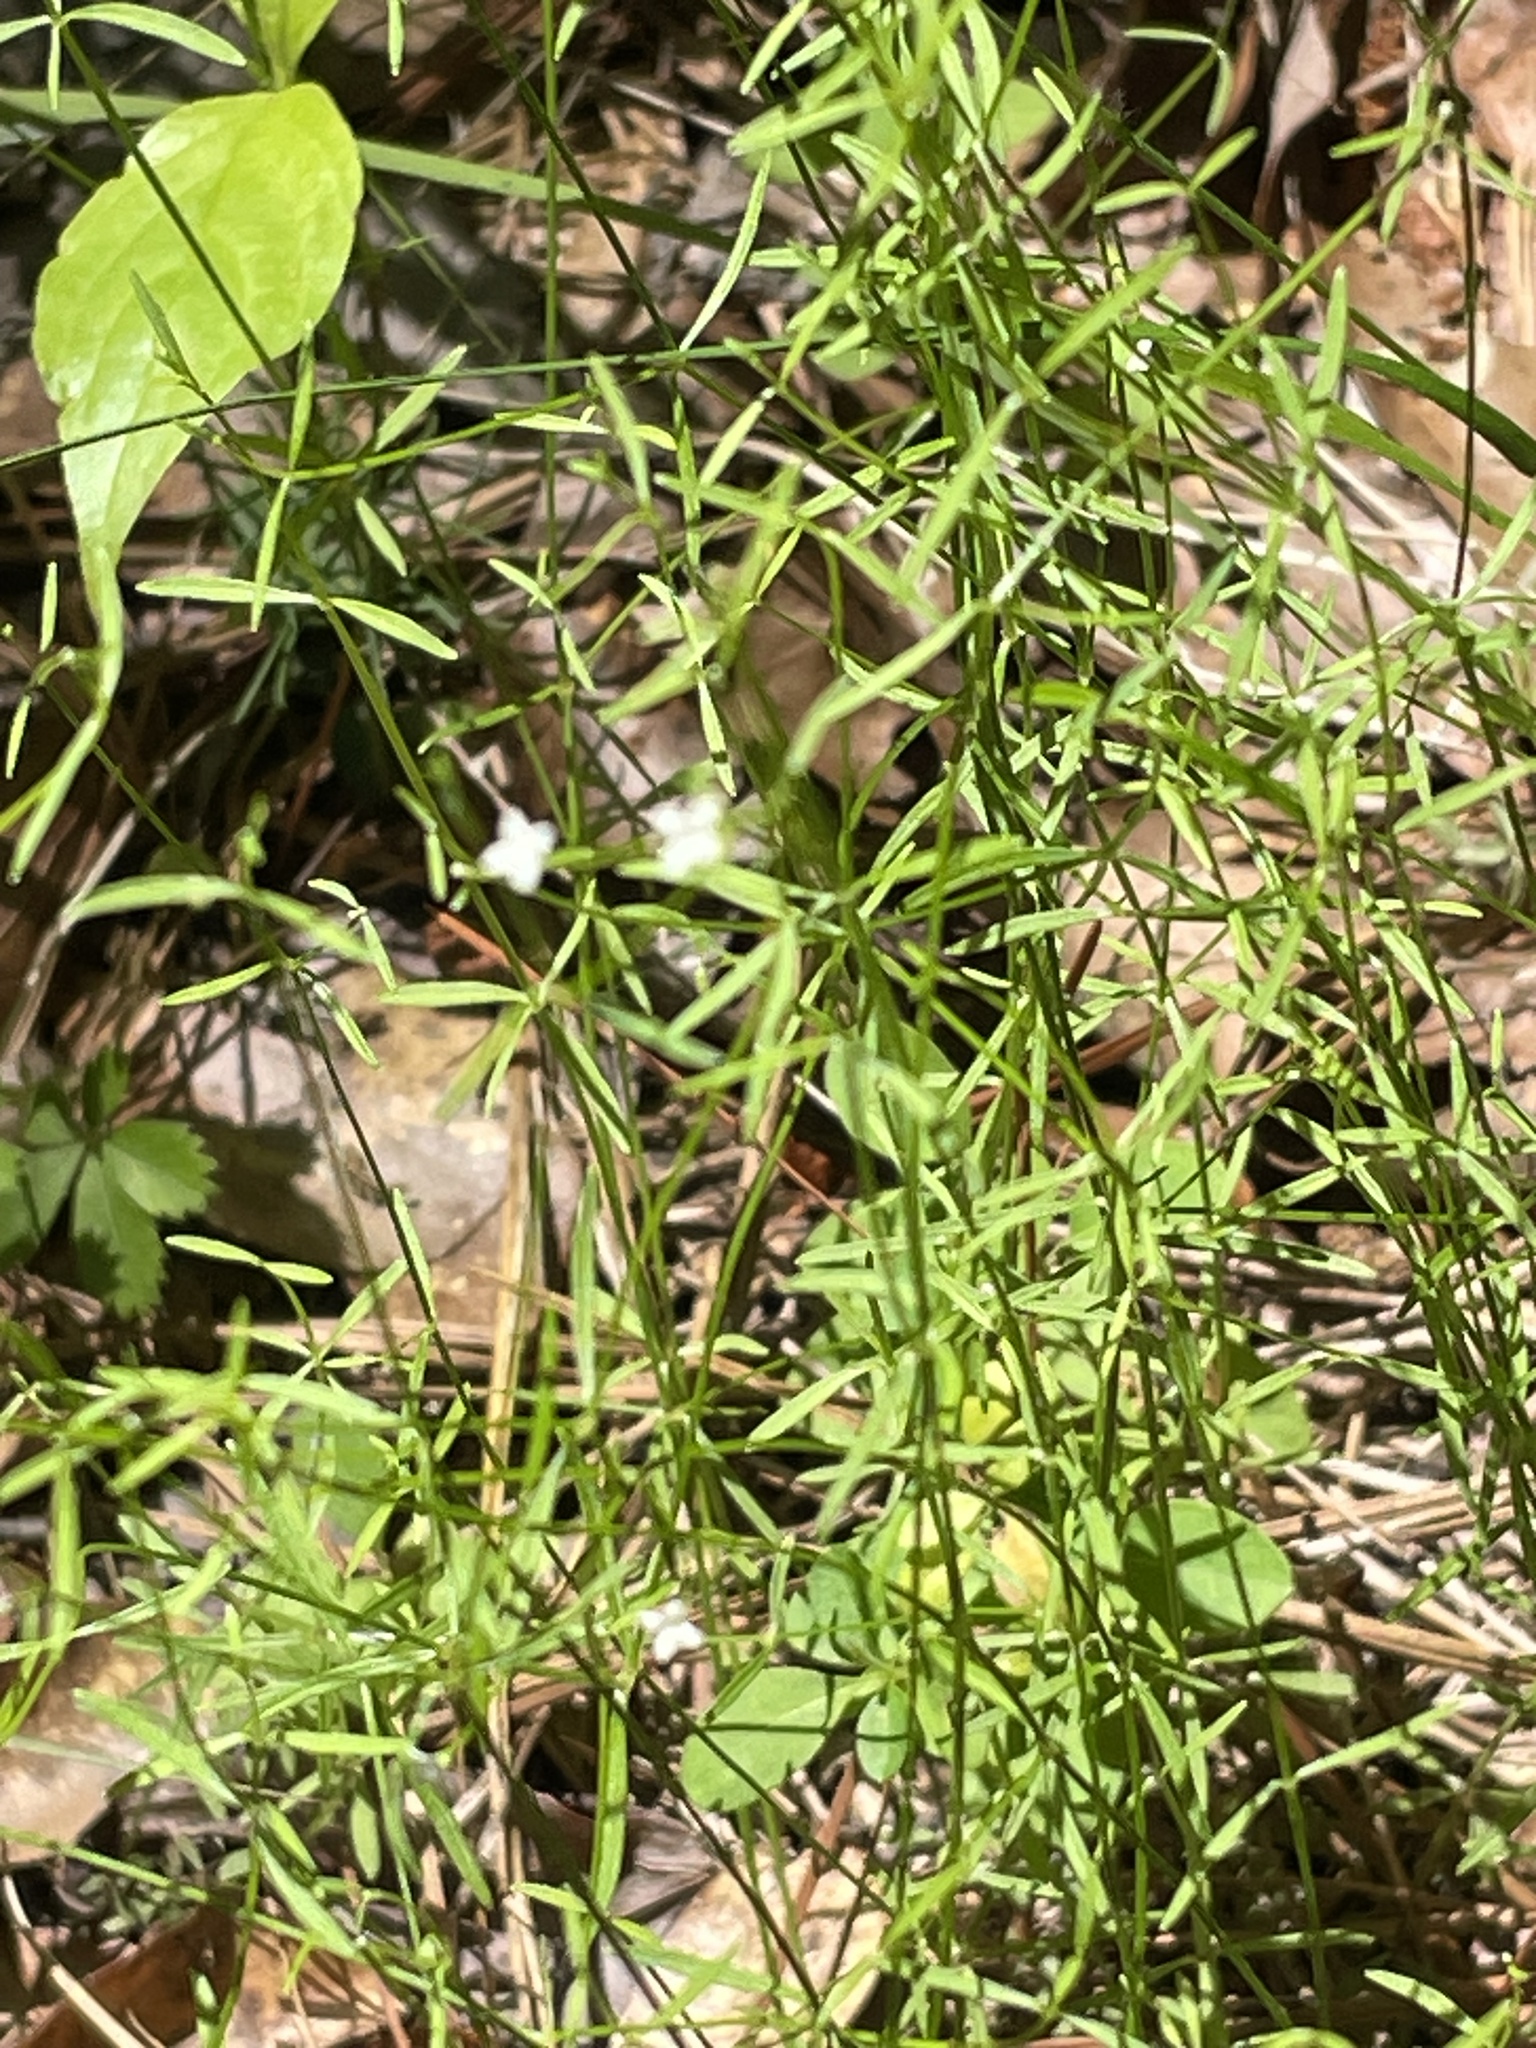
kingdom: Plantae
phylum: Tracheophyta
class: Magnoliopsida
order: Gentianales
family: Rubiaceae
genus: Galium
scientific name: Galium obtusum
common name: Blunt-leaved bedstraw
